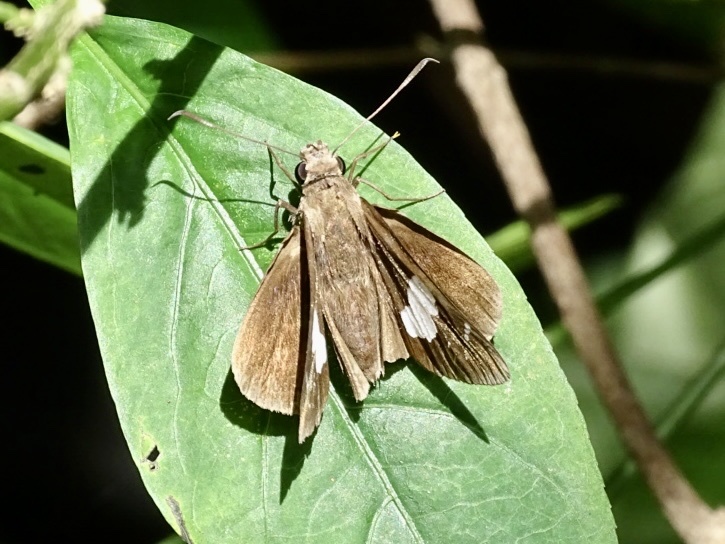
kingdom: Animalia
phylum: Arthropoda
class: Insecta
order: Lepidoptera
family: Hesperiidae
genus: Notocrypta
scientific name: Notocrypta curvifascia
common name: Restricted demon
